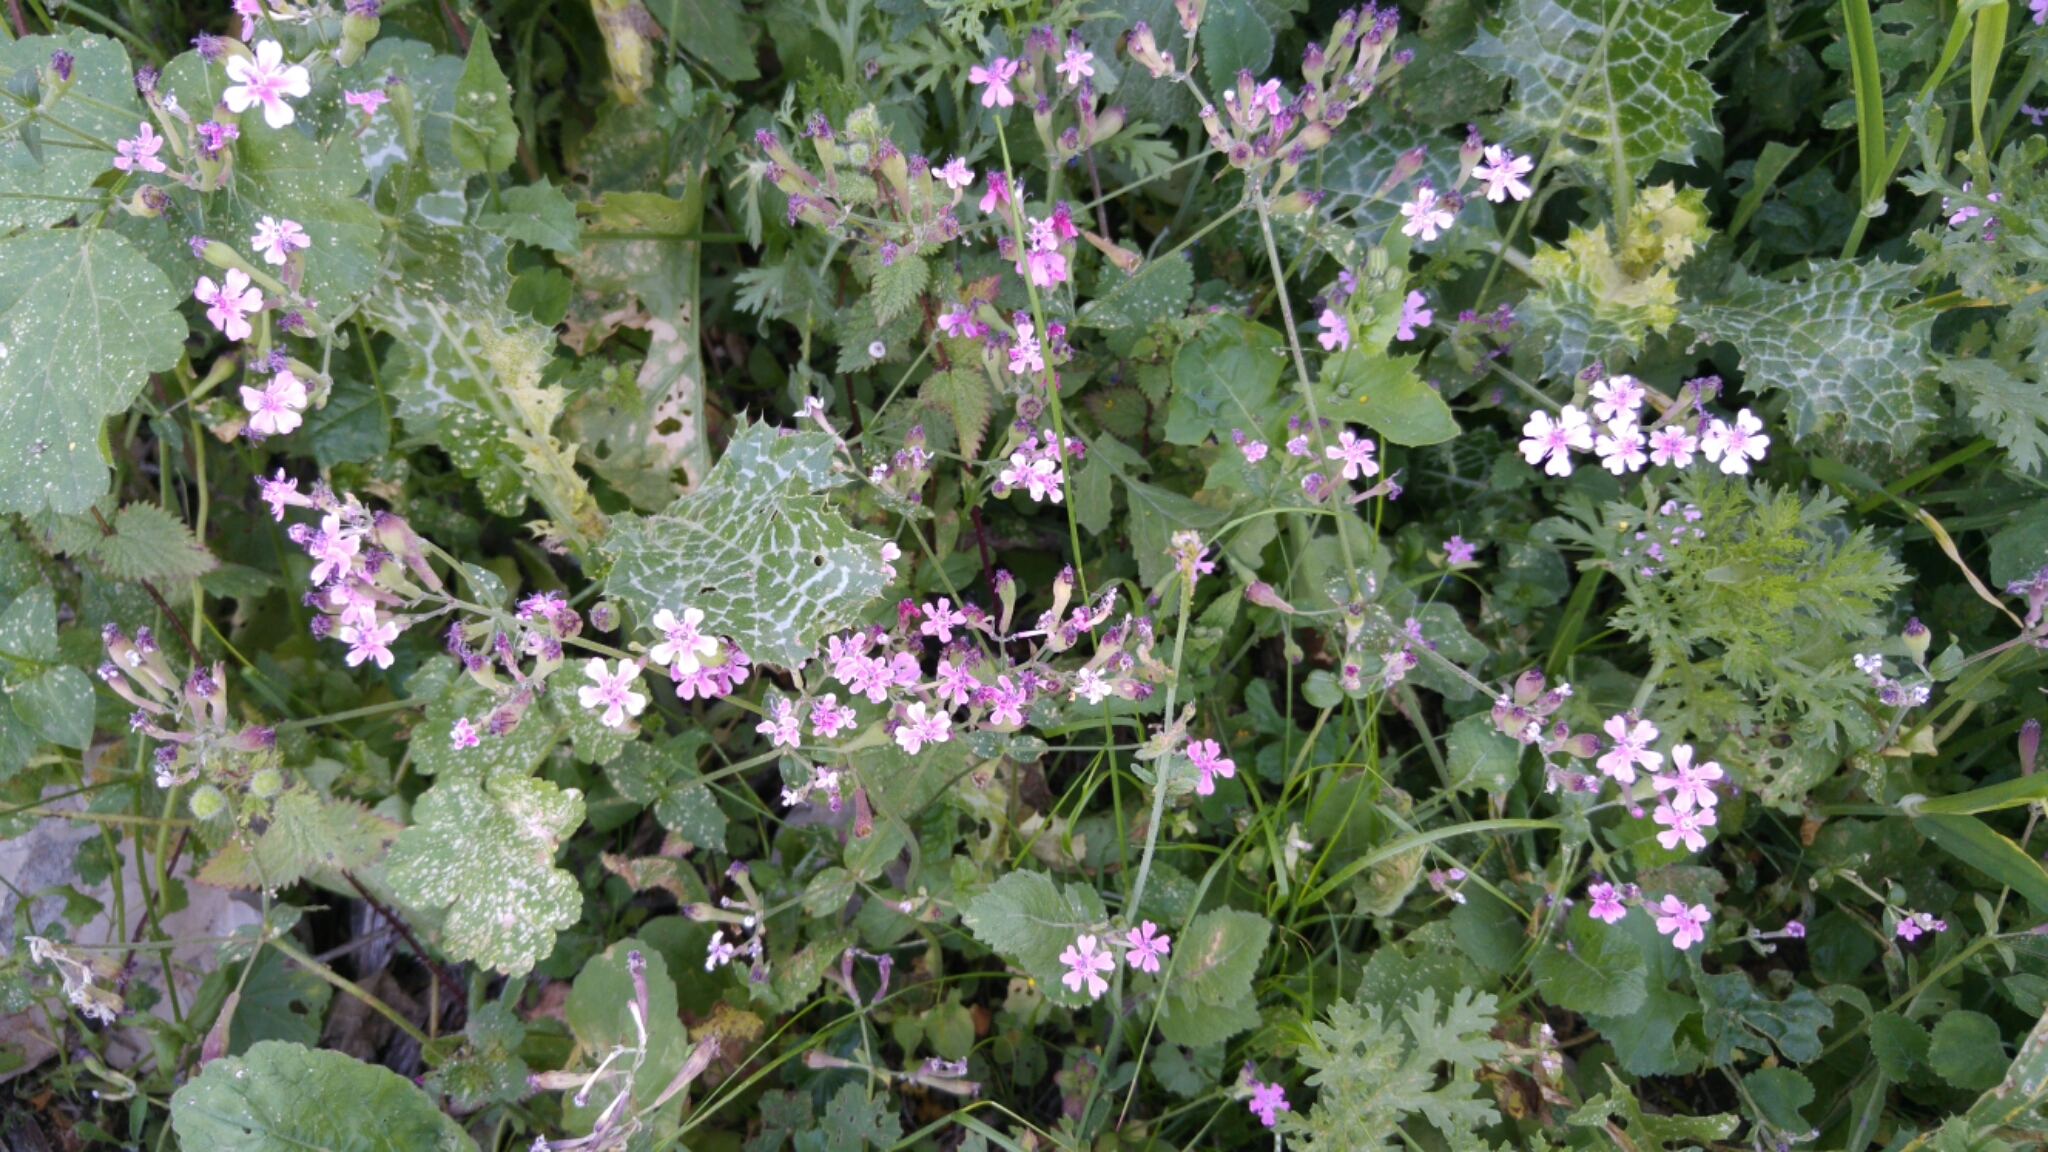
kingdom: Plantae
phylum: Tracheophyta
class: Magnoliopsida
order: Caryophyllales
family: Caryophyllaceae
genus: Silene
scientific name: Silene aegyptiaca
